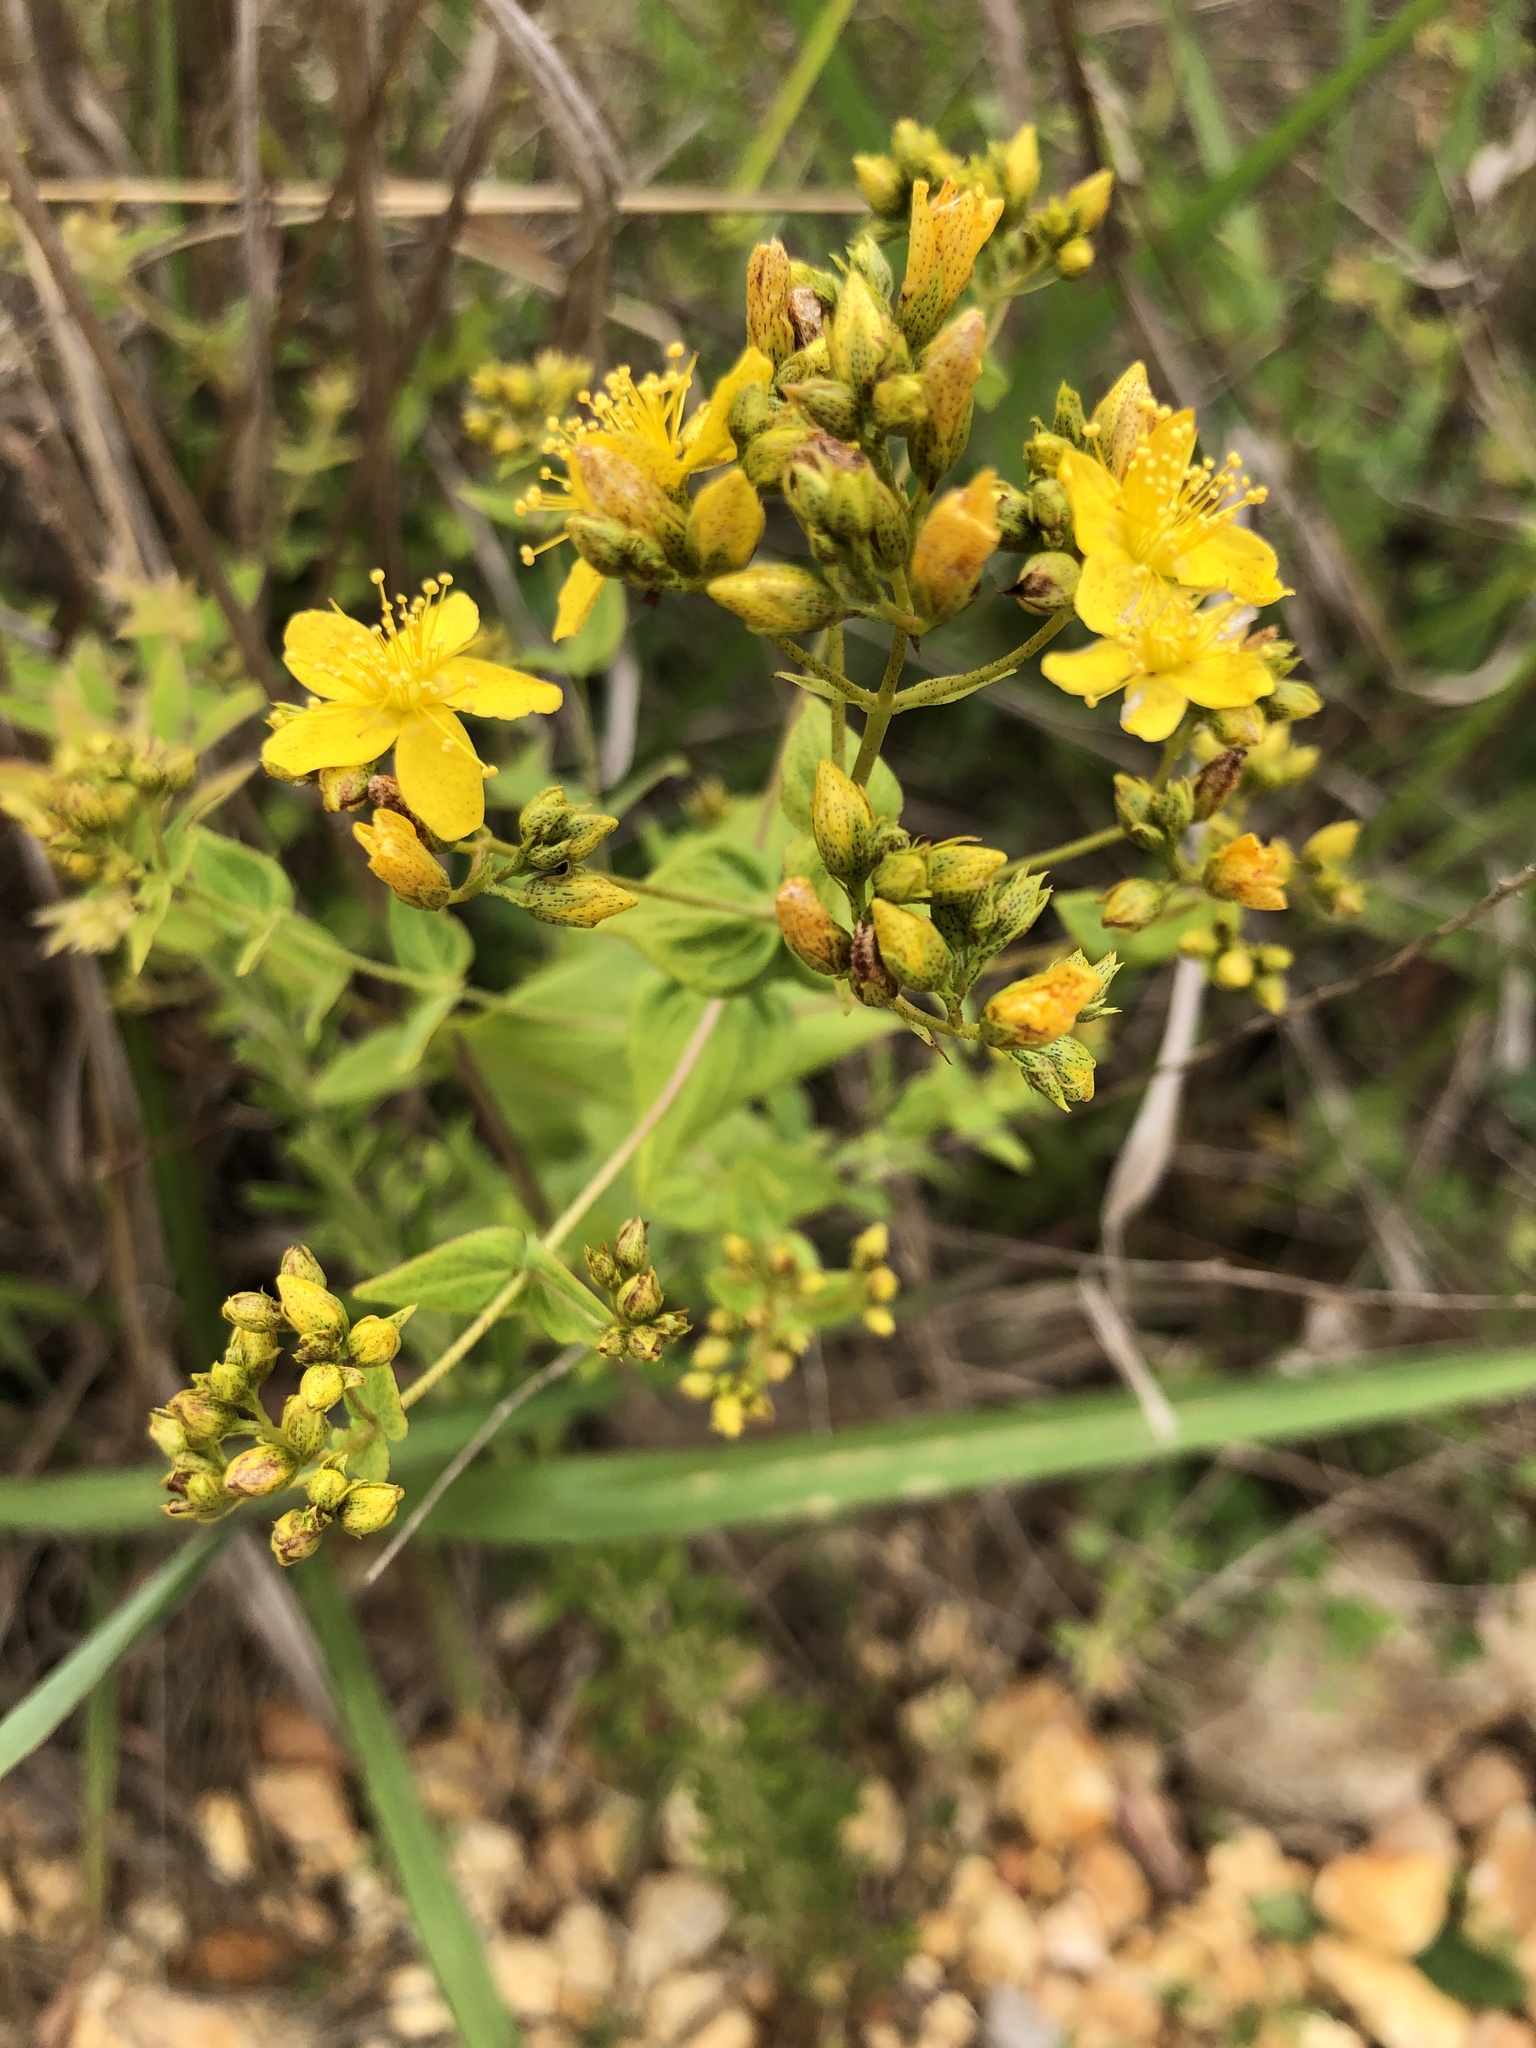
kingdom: Plantae
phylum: Tracheophyta
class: Magnoliopsida
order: Malpighiales
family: Hypericaceae
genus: Hypericum
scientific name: Hypericum punctatum
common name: Spotted st. john's-wort
